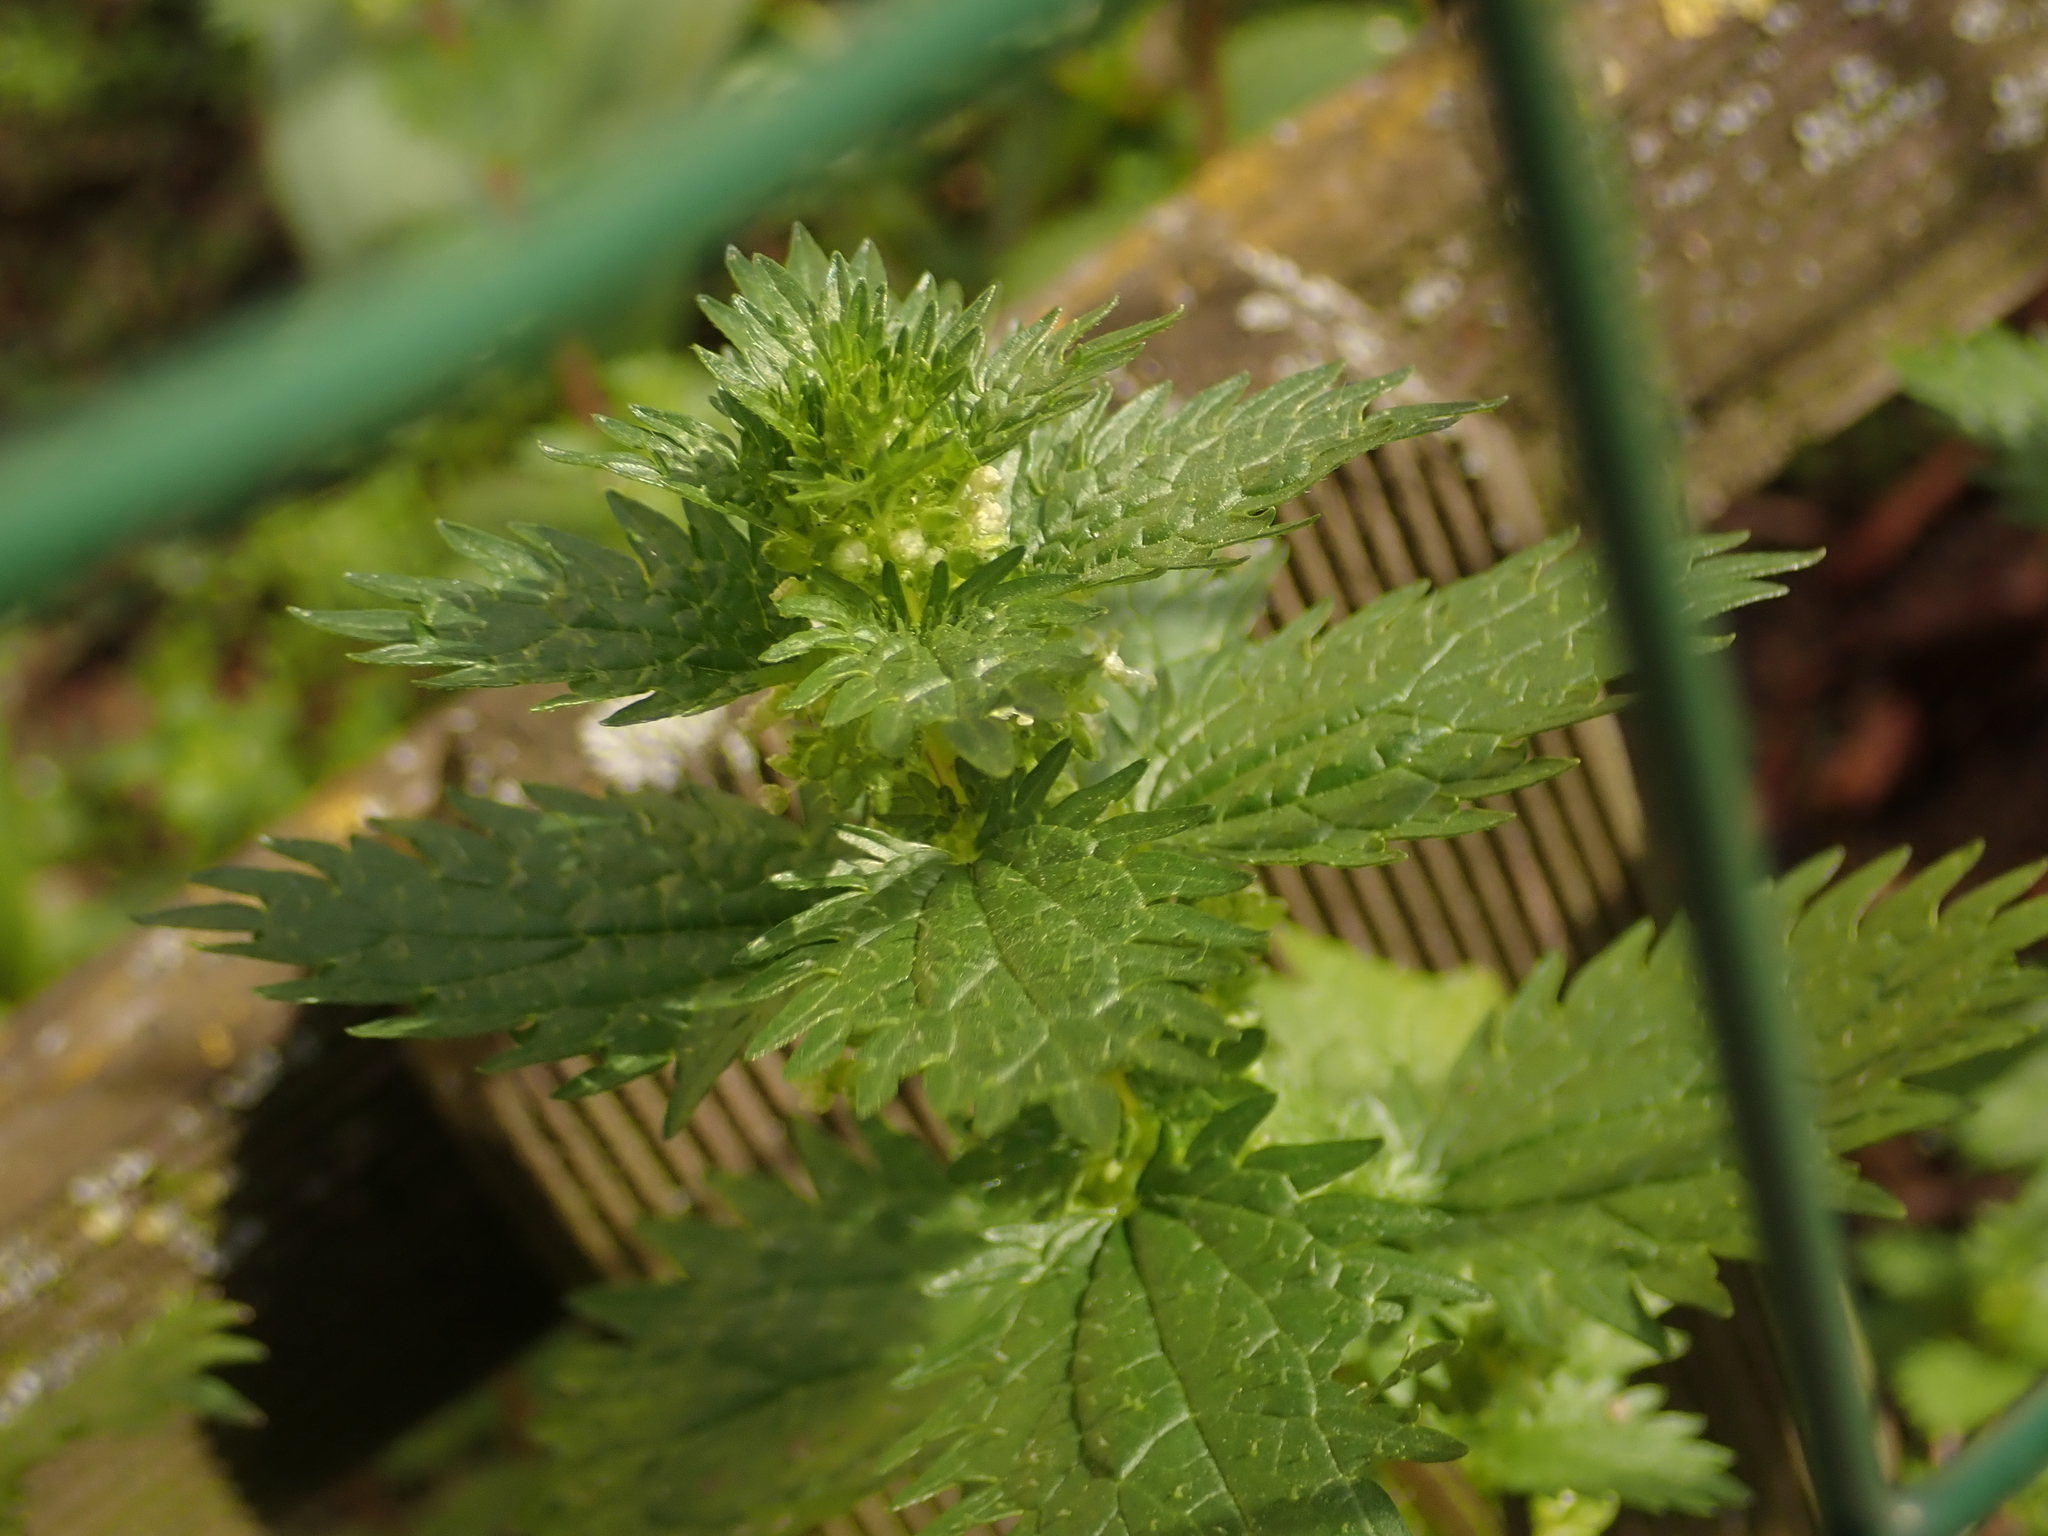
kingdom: Plantae
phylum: Tracheophyta
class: Magnoliopsida
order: Rosales
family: Urticaceae
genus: Urtica
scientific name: Urtica urens
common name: Dwarf nettle
